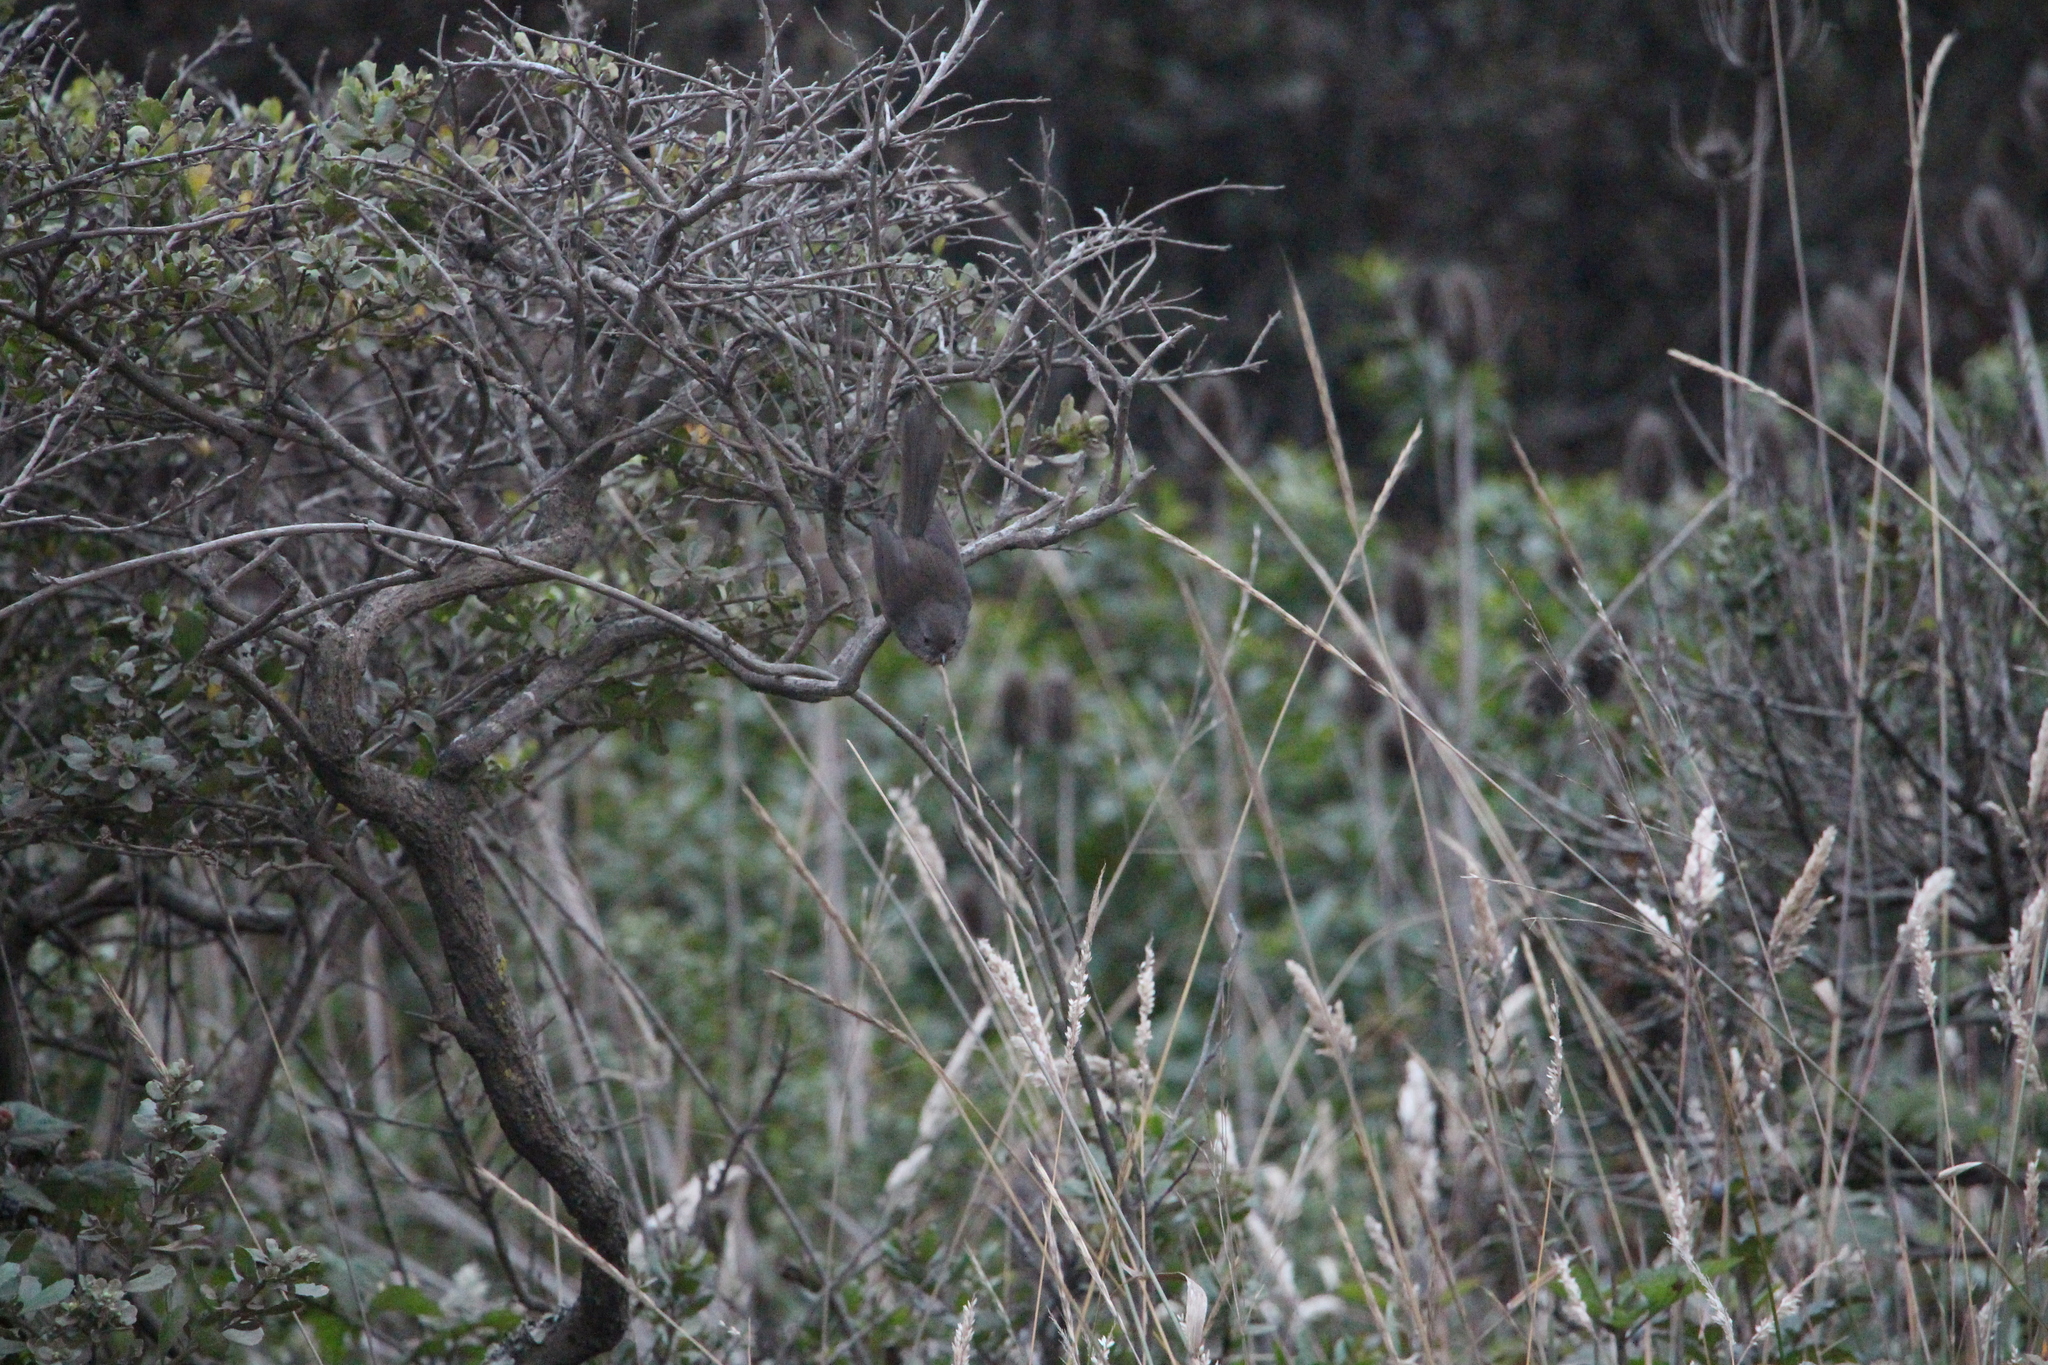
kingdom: Animalia
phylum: Chordata
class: Aves
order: Passeriformes
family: Sylviidae
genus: Chamaea
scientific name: Chamaea fasciata
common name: Wrentit
